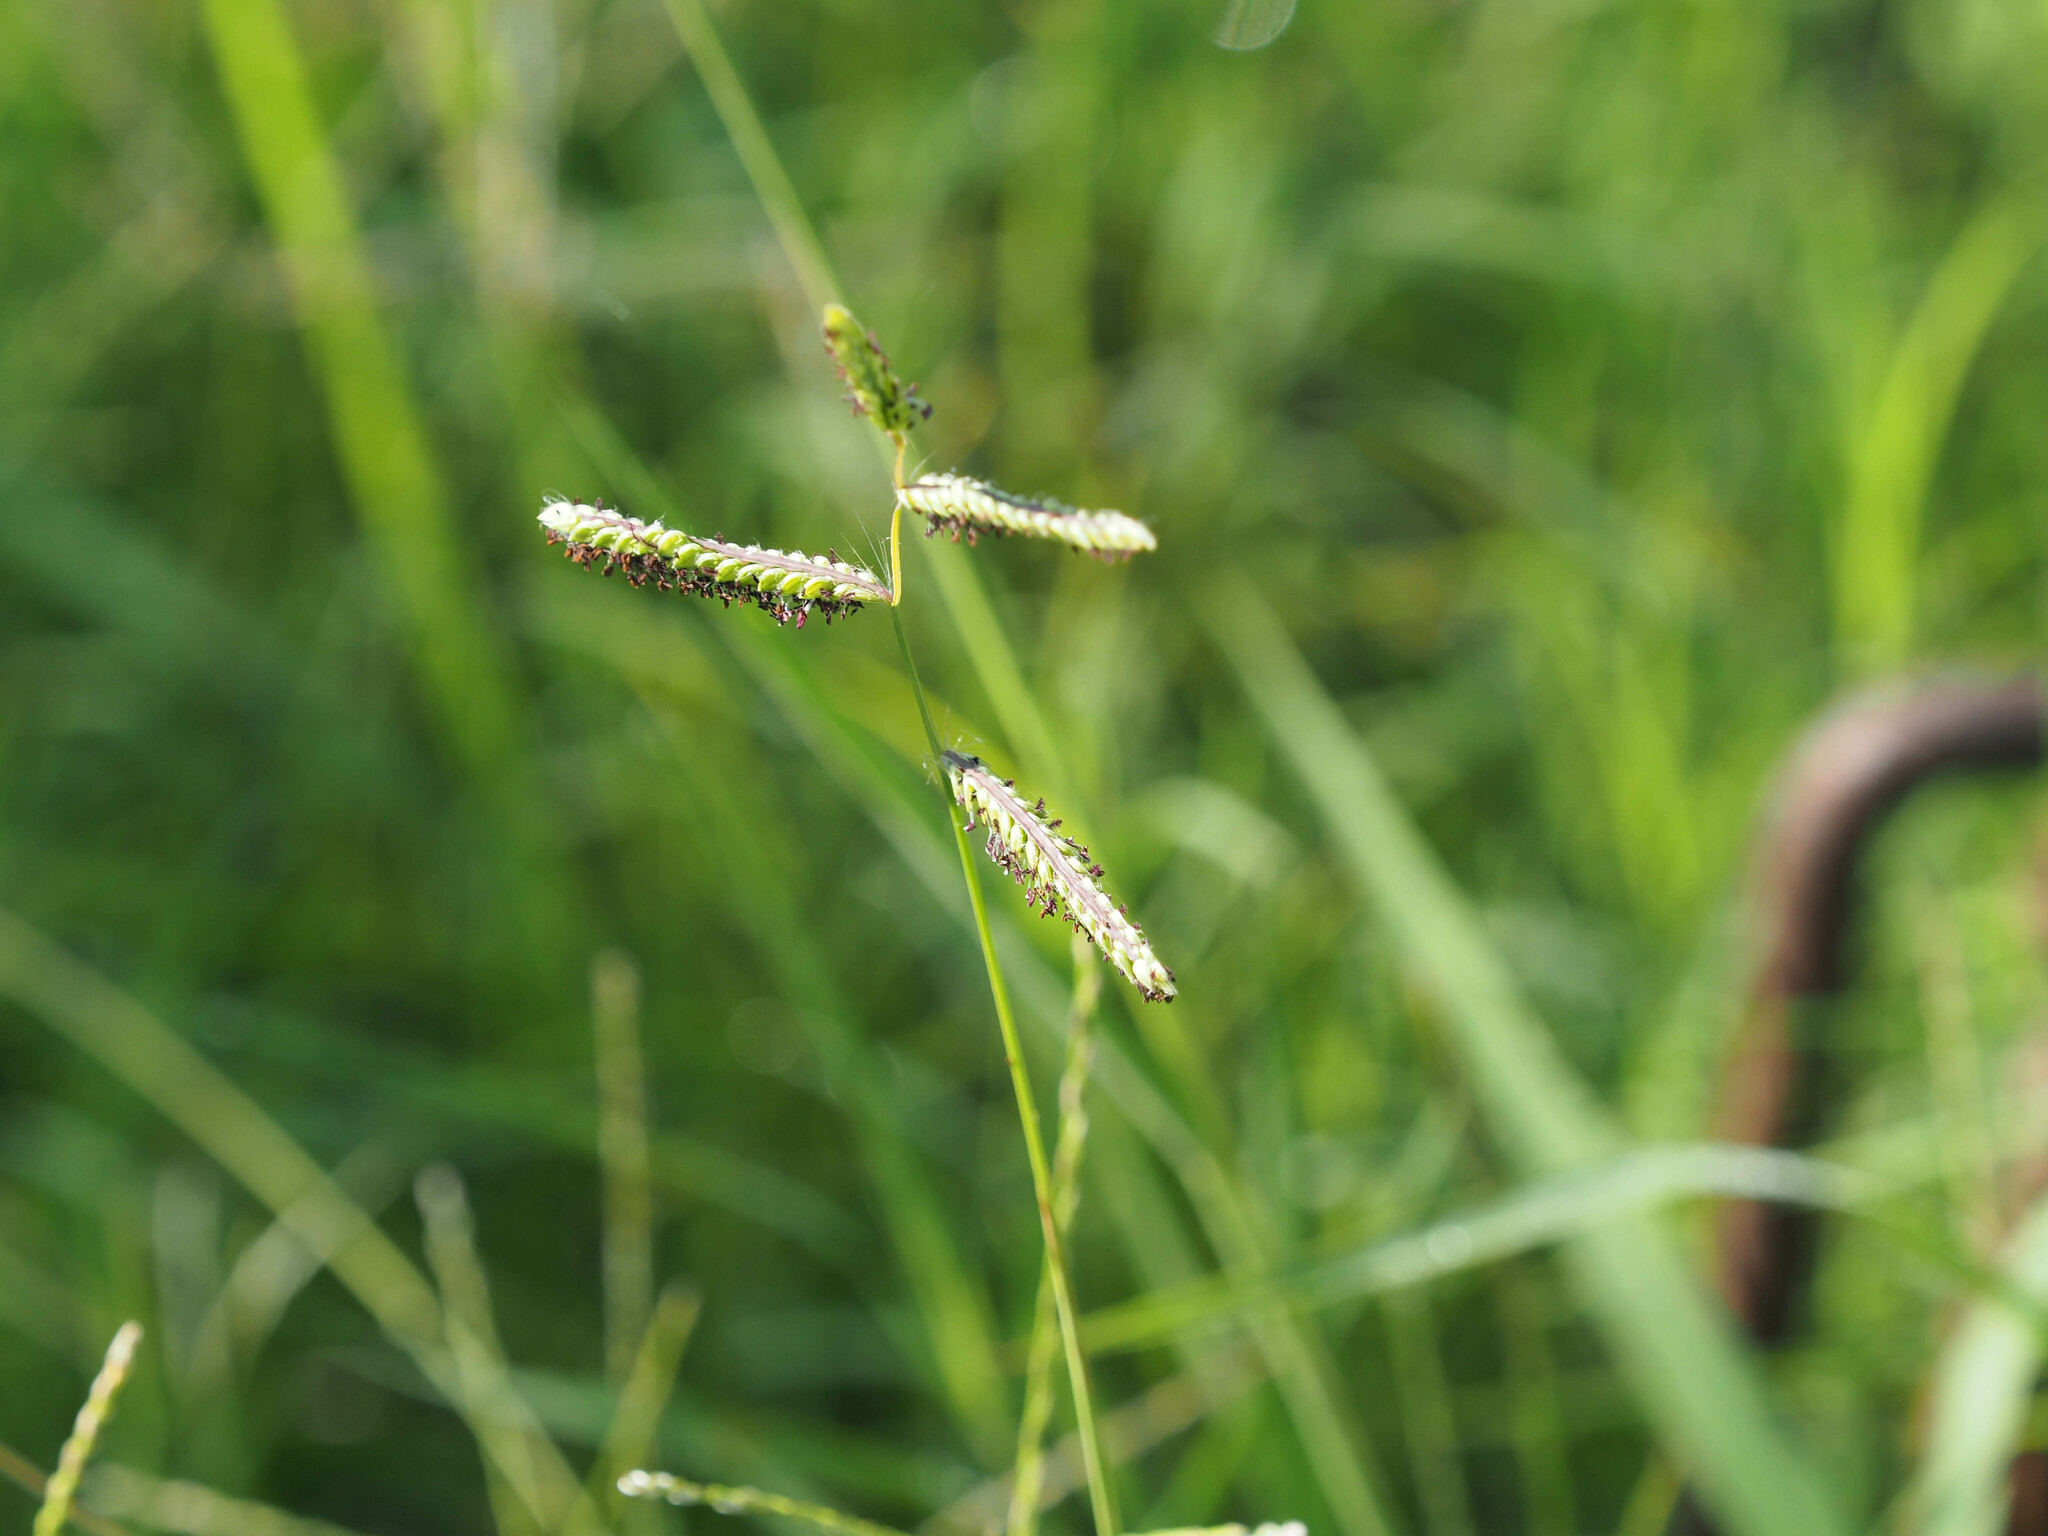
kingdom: Plantae
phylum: Tracheophyta
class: Liliopsida
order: Poales
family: Poaceae
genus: Paspalum
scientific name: Paspalum dilatatum
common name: Dallisgrass
